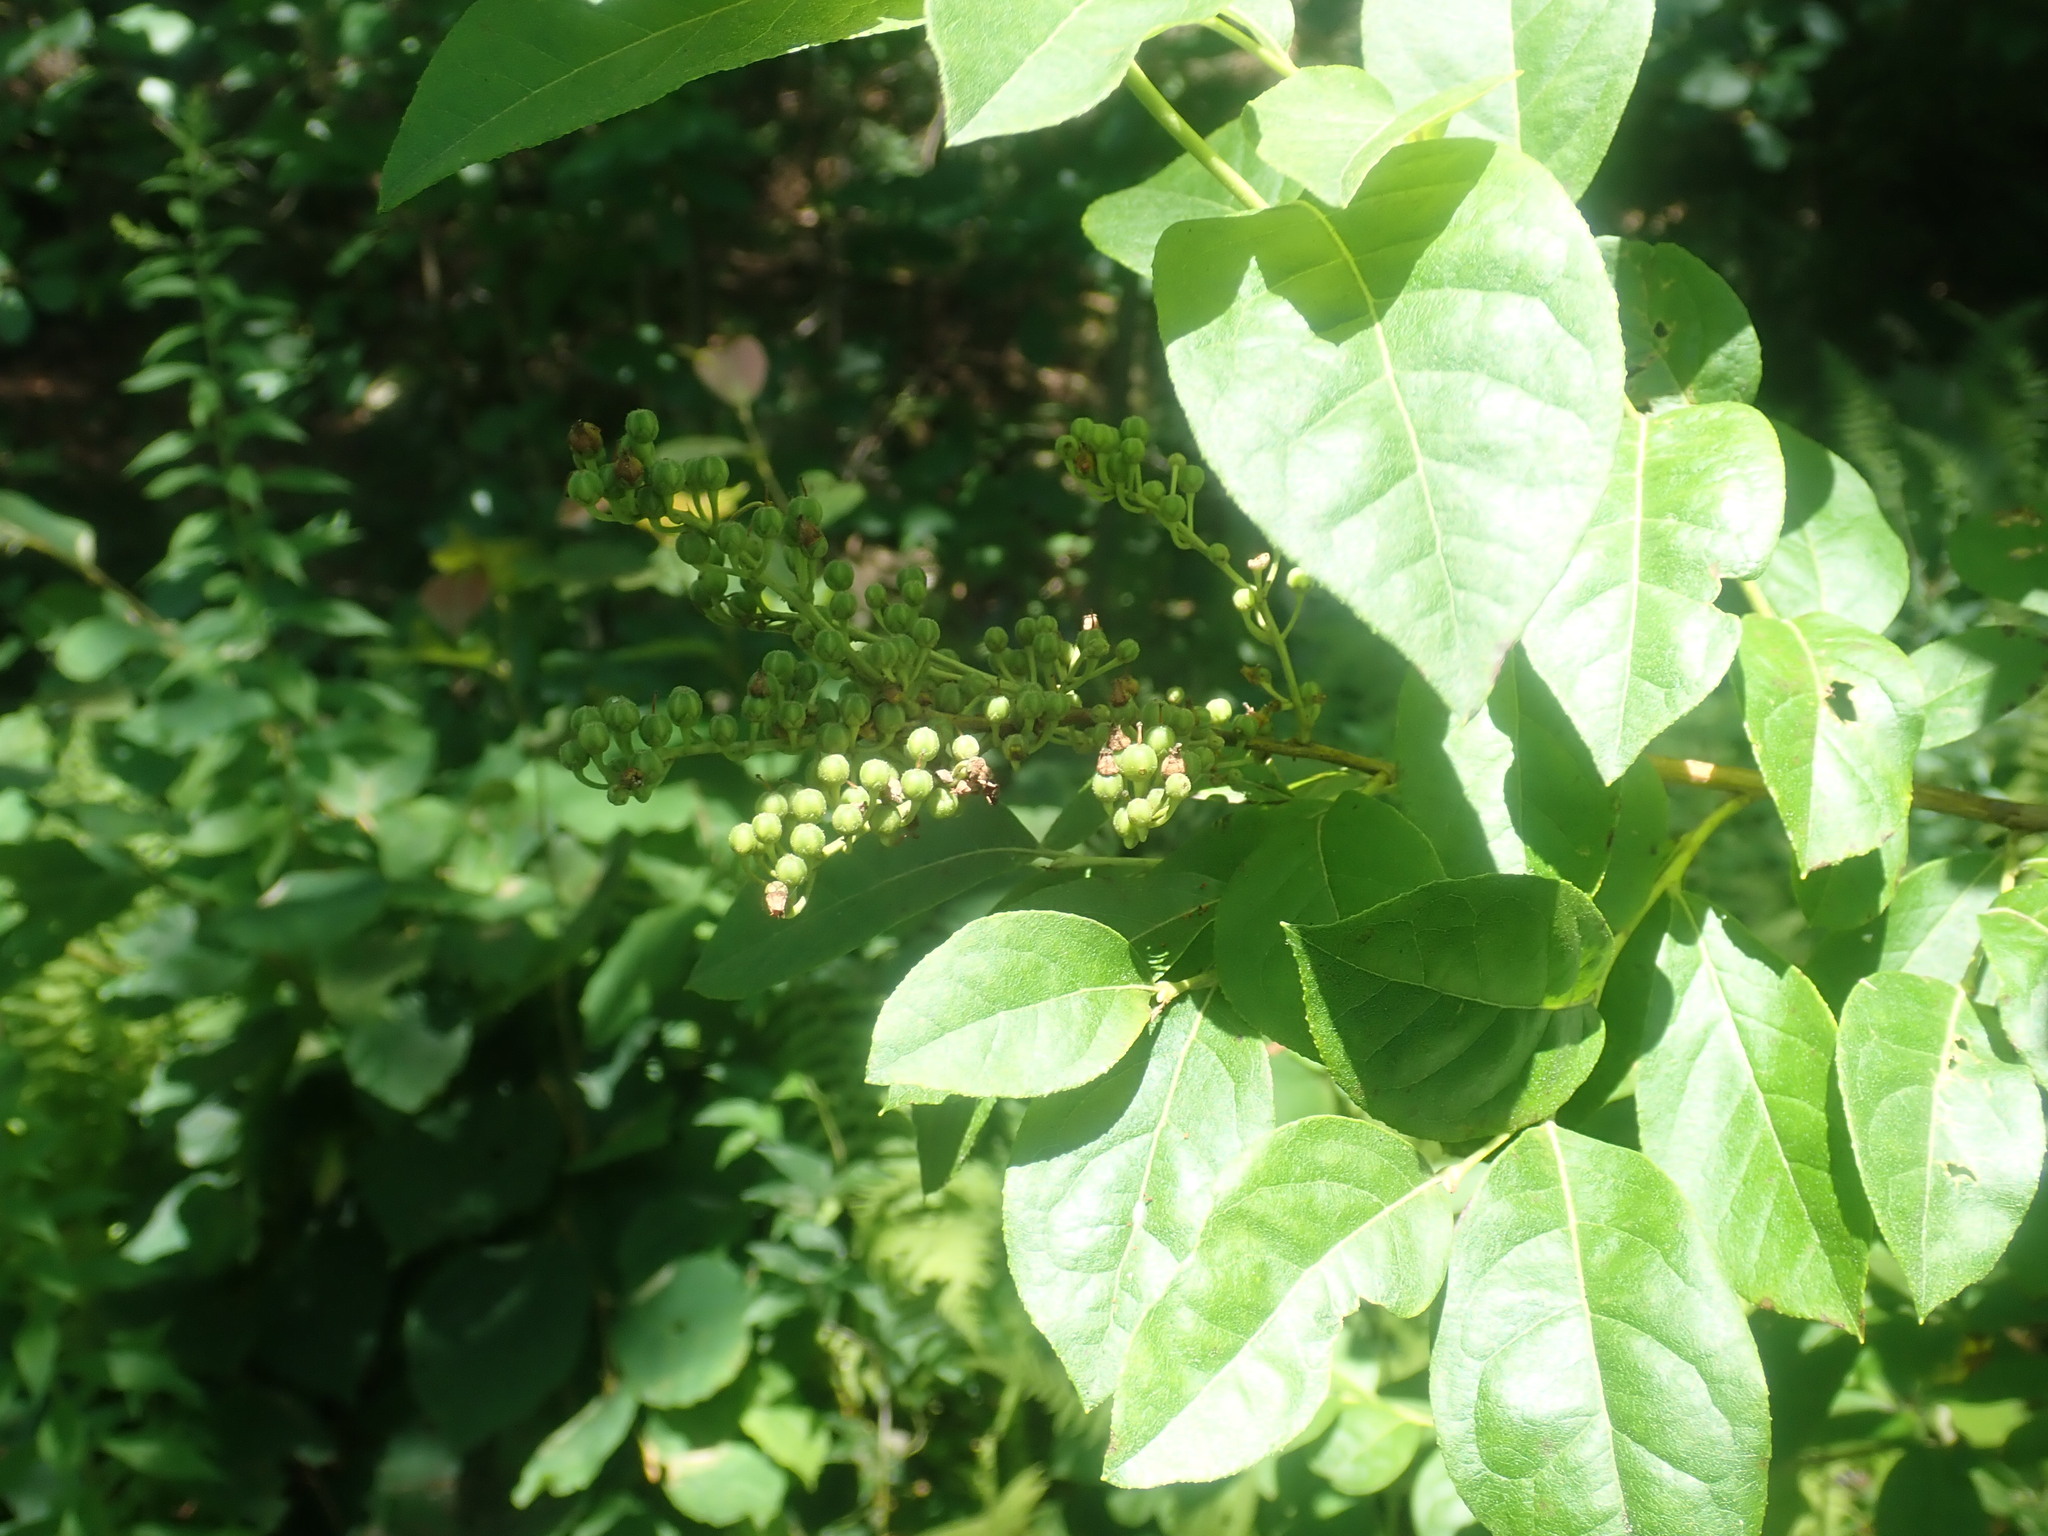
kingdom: Plantae
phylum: Tracheophyta
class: Magnoliopsida
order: Ericales
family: Ericaceae
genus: Lyonia
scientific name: Lyonia ligustrina
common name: Maleberry
